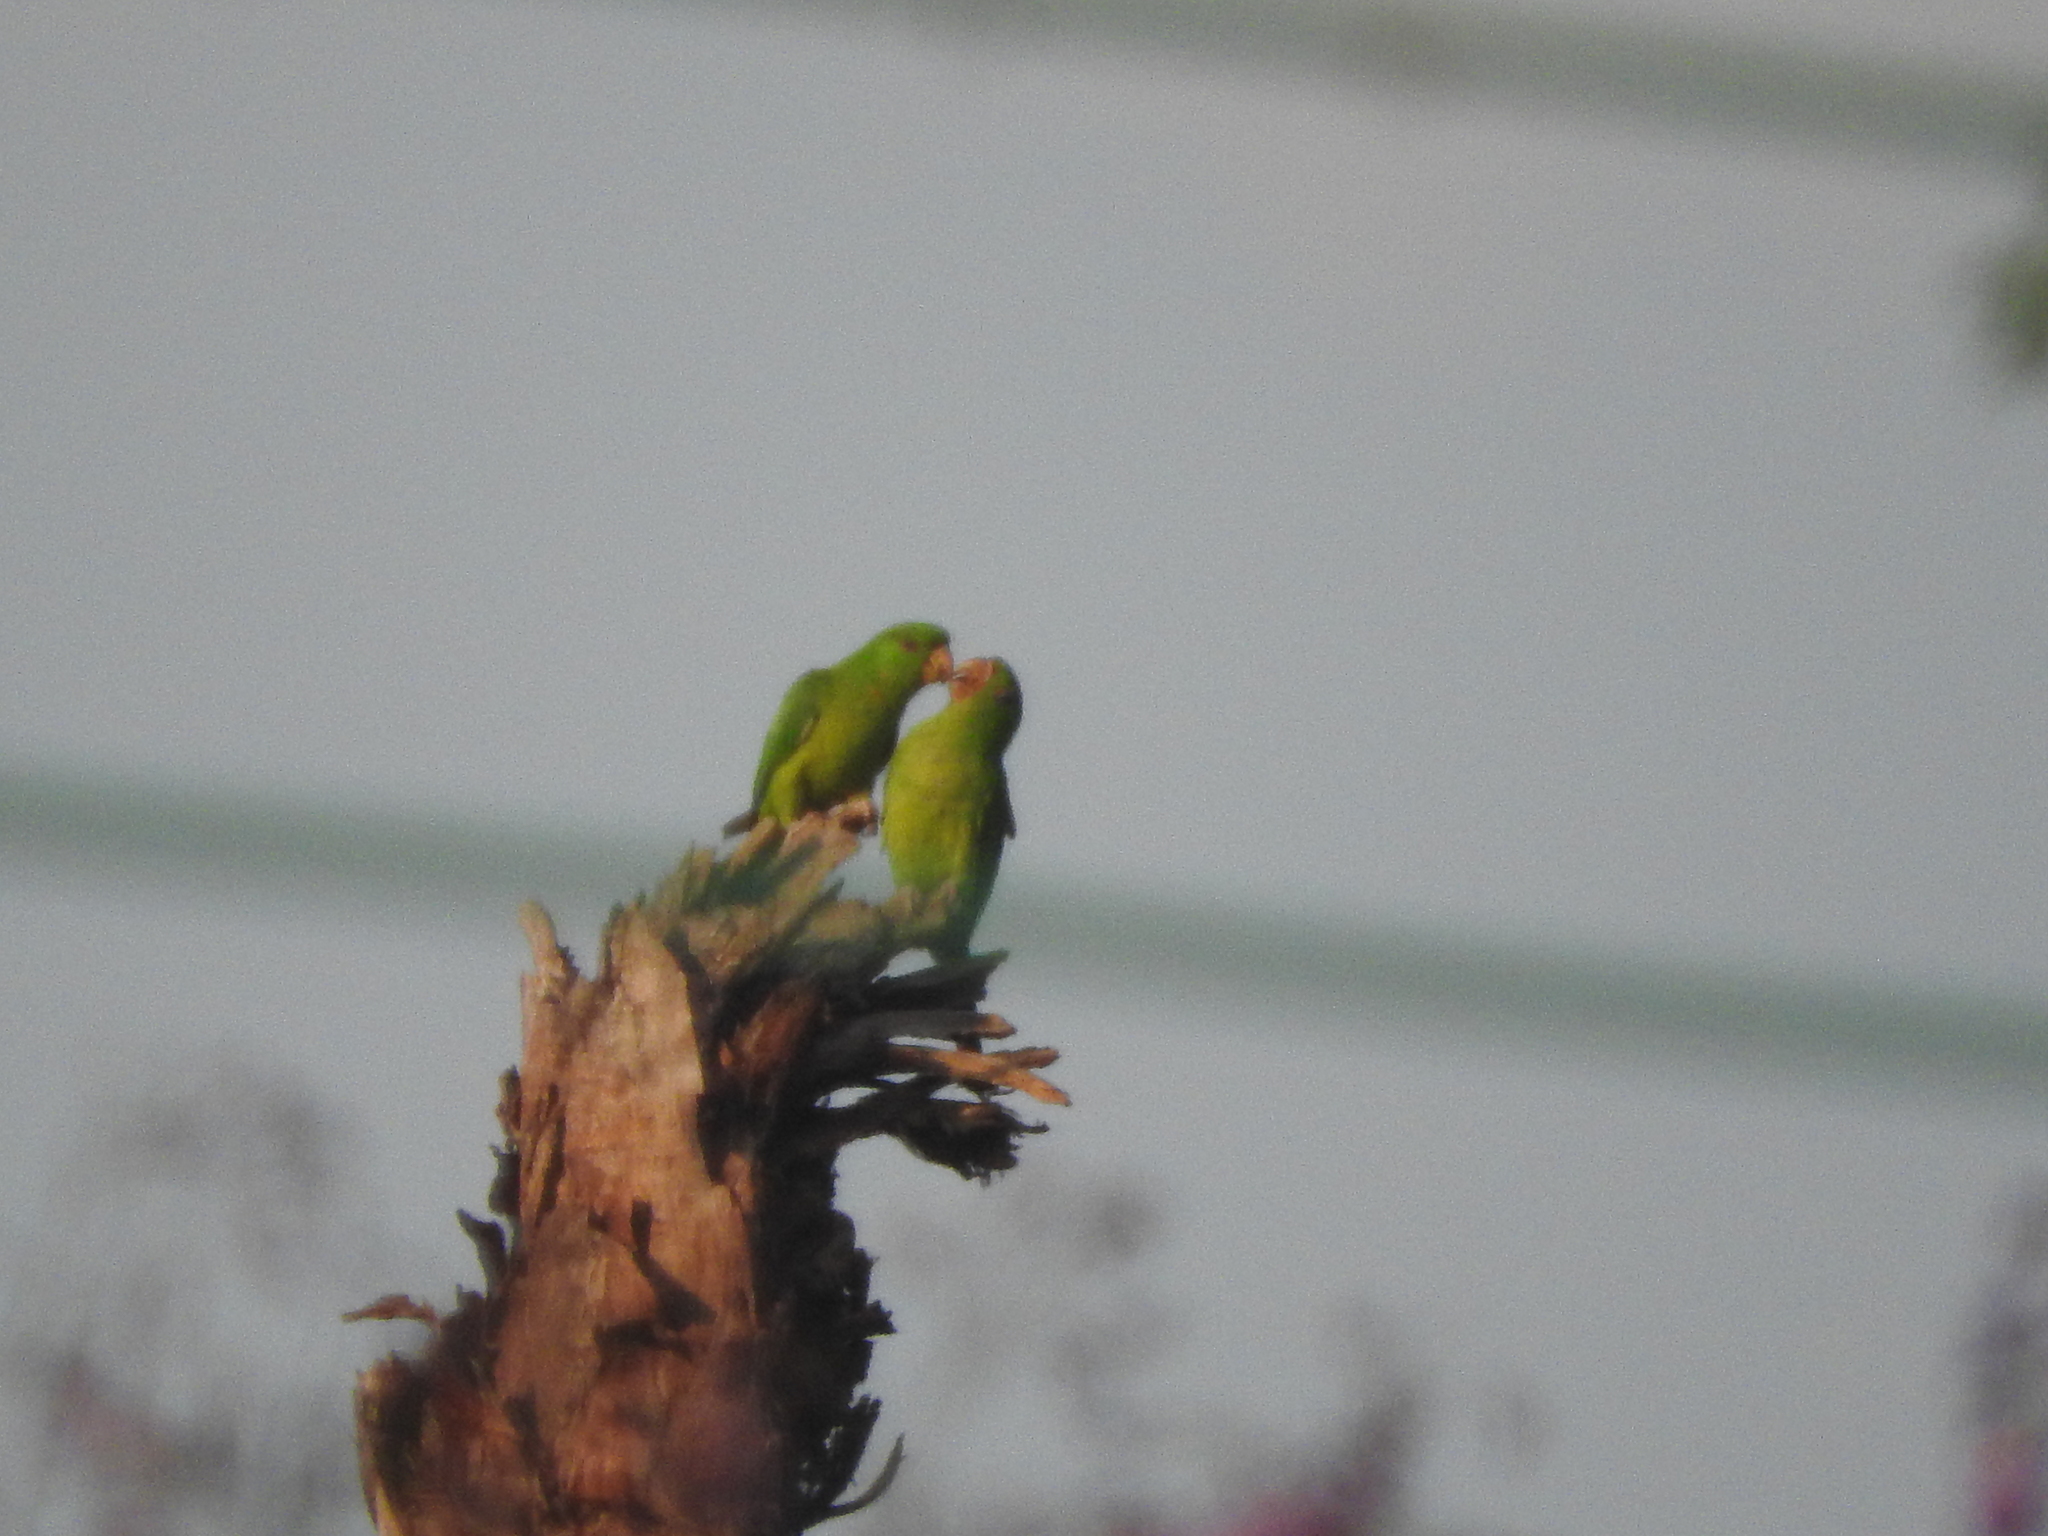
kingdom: Animalia
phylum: Chordata
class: Aves
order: Psittaciformes
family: Psittacidae
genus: Aratinga
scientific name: Aratinga holochlora
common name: Green parakeet
